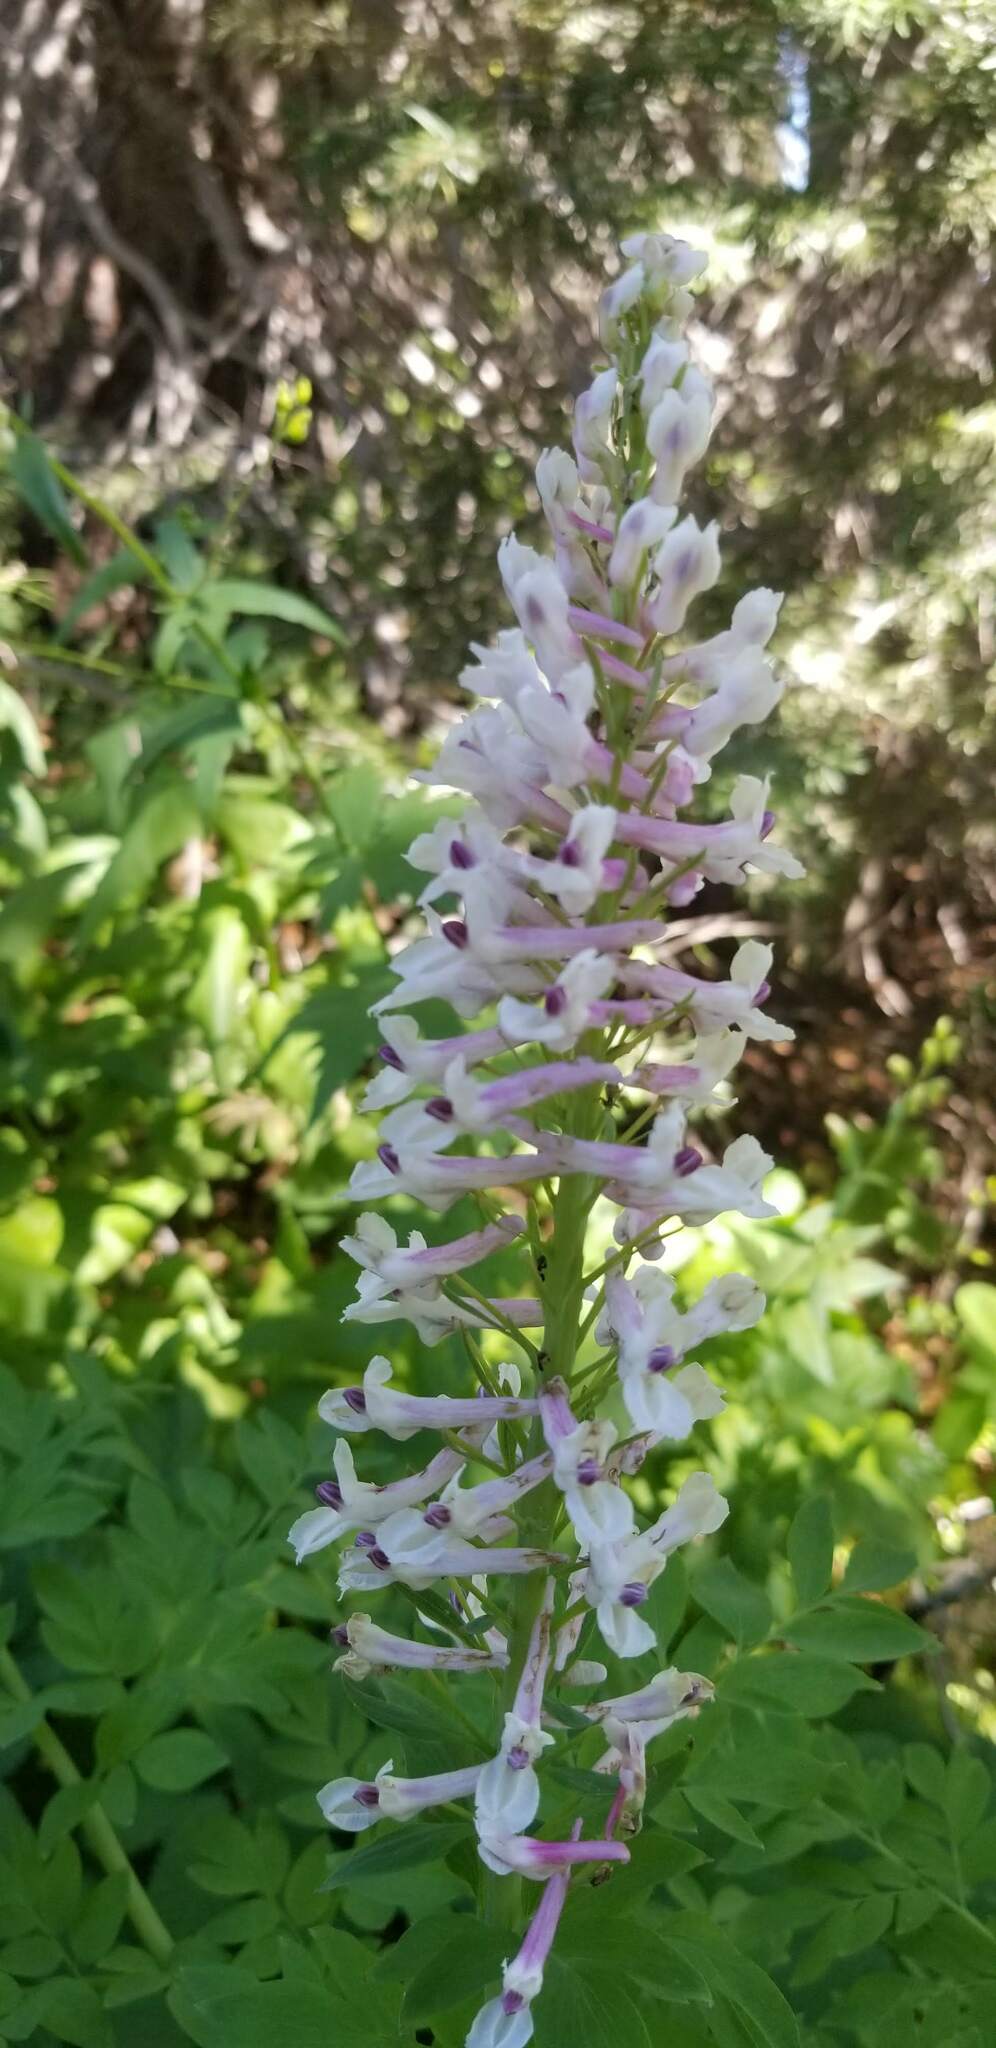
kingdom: Plantae
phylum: Tracheophyta
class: Magnoliopsida
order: Ranunculales
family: Papaveraceae
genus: Corydalis
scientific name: Corydalis caseana
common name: Fitweed
